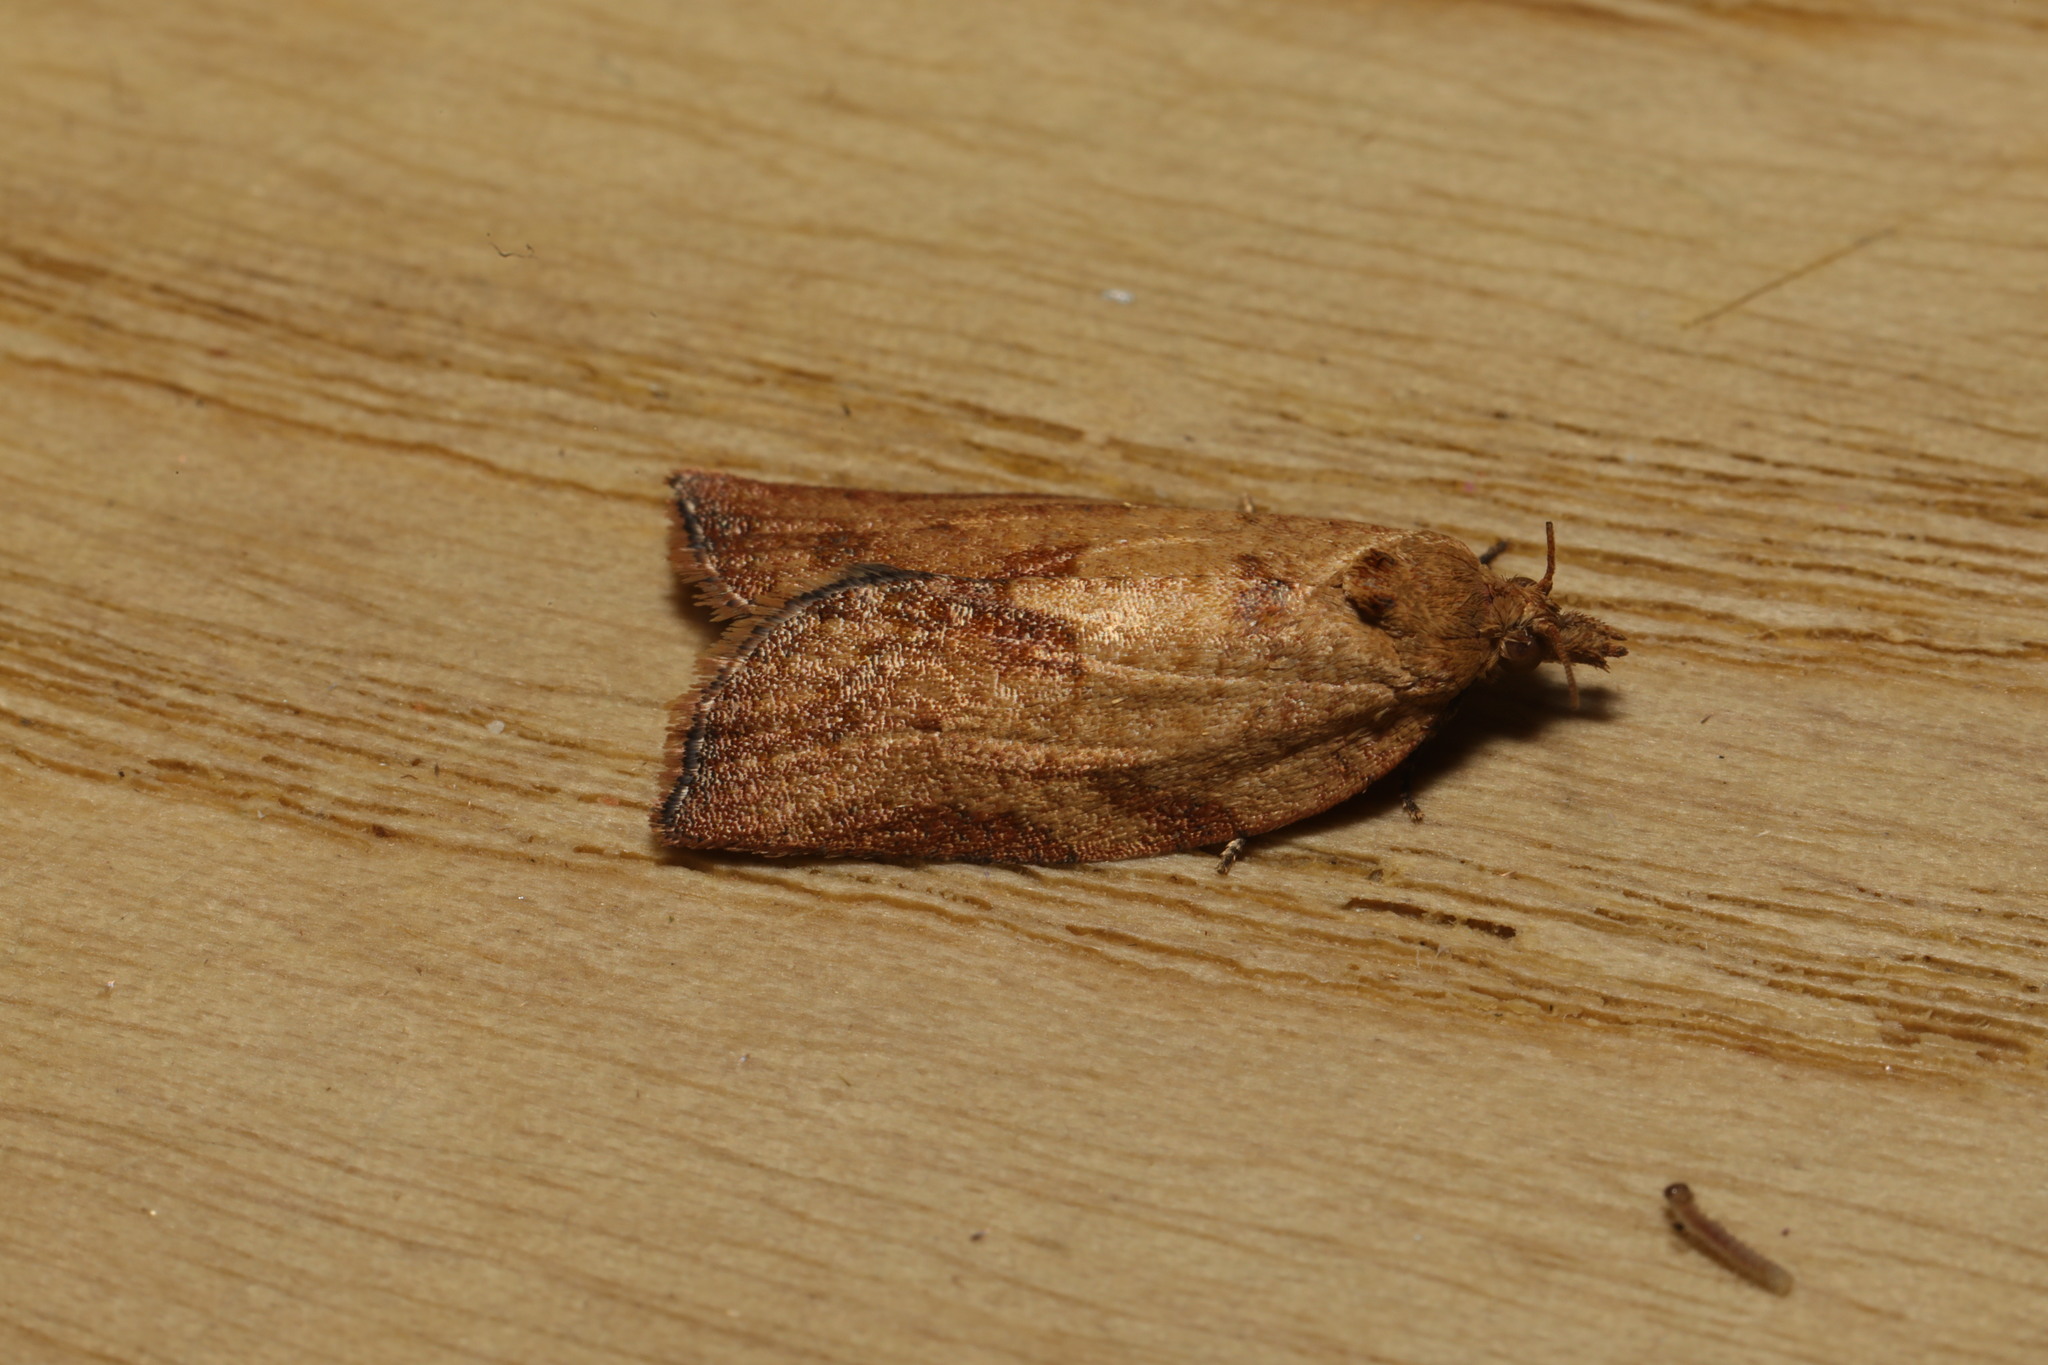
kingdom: Animalia
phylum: Arthropoda
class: Insecta
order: Lepidoptera
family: Tortricidae
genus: Epiphyas
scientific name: Epiphyas postvittana
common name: Light brown apple moth
